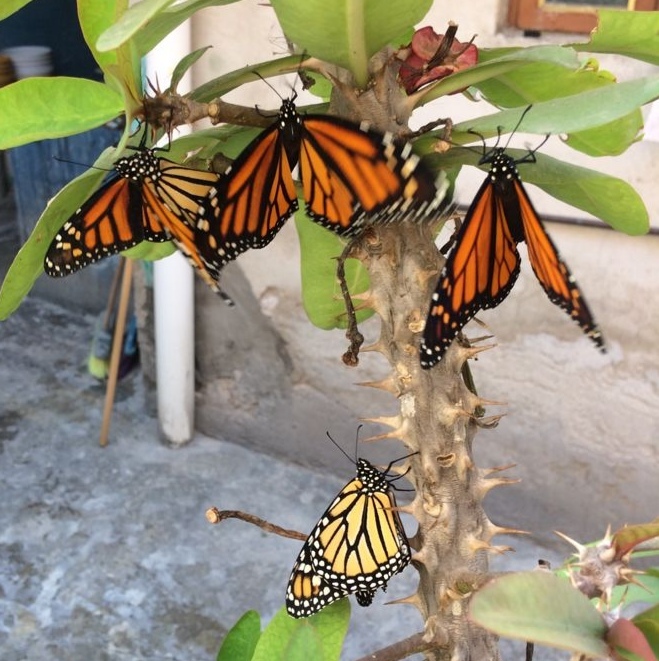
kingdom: Animalia
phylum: Arthropoda
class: Insecta
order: Lepidoptera
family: Nymphalidae
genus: Danaus
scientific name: Danaus plexippus
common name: Monarch
